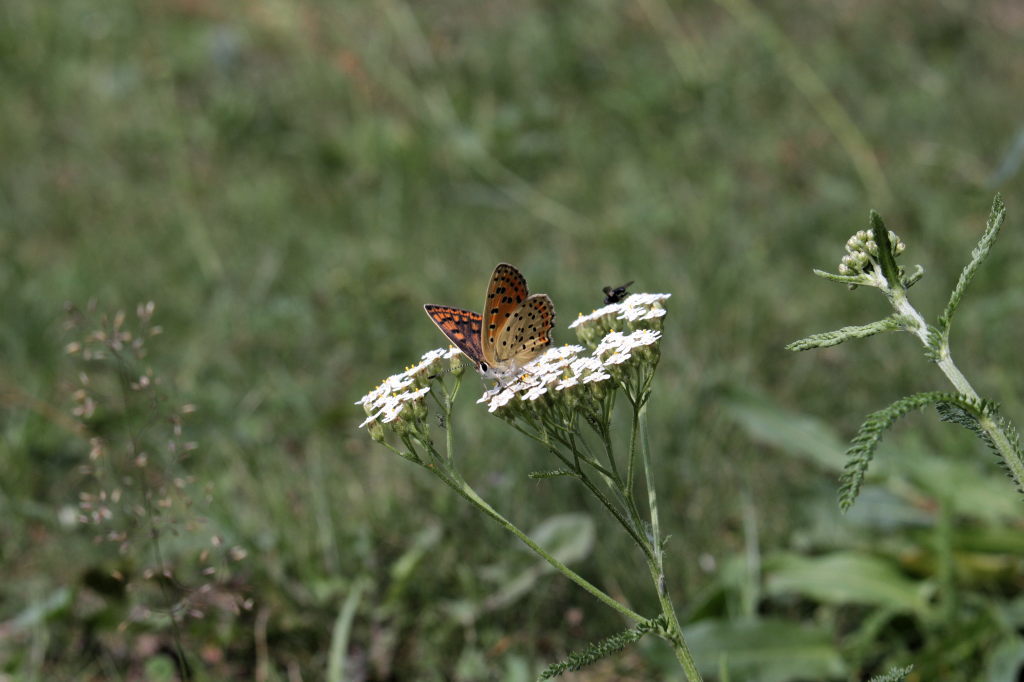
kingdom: Animalia
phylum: Arthropoda
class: Insecta
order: Lepidoptera
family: Lycaenidae
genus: Loweia
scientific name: Loweia tityrus
